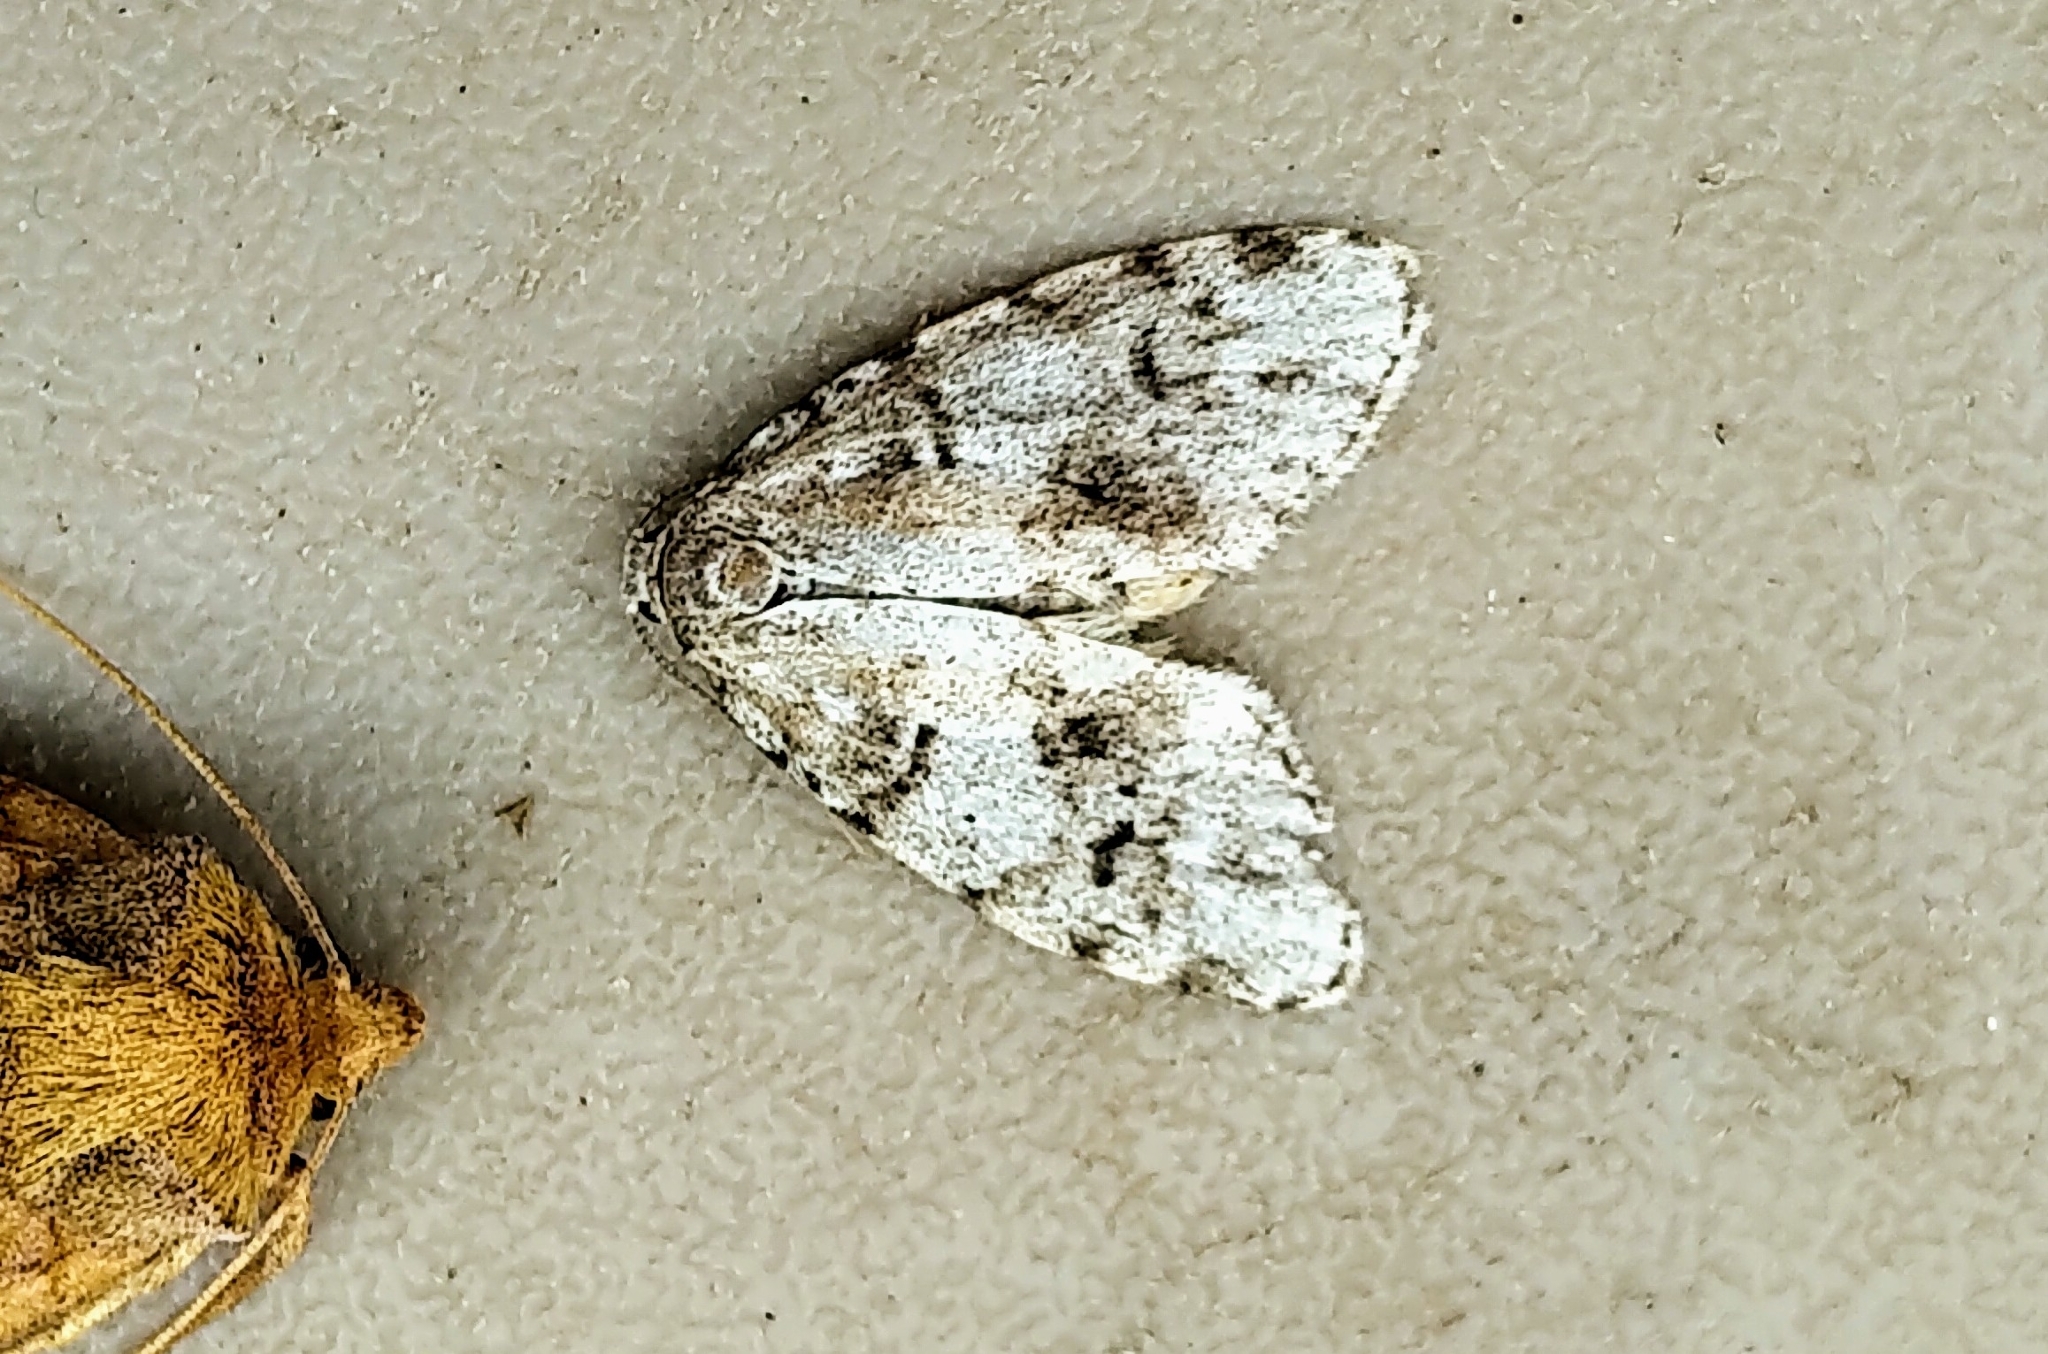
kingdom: Animalia
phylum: Arthropoda
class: Insecta
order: Lepidoptera
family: Erebidae
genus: Clemensia
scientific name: Clemensia umbrata
